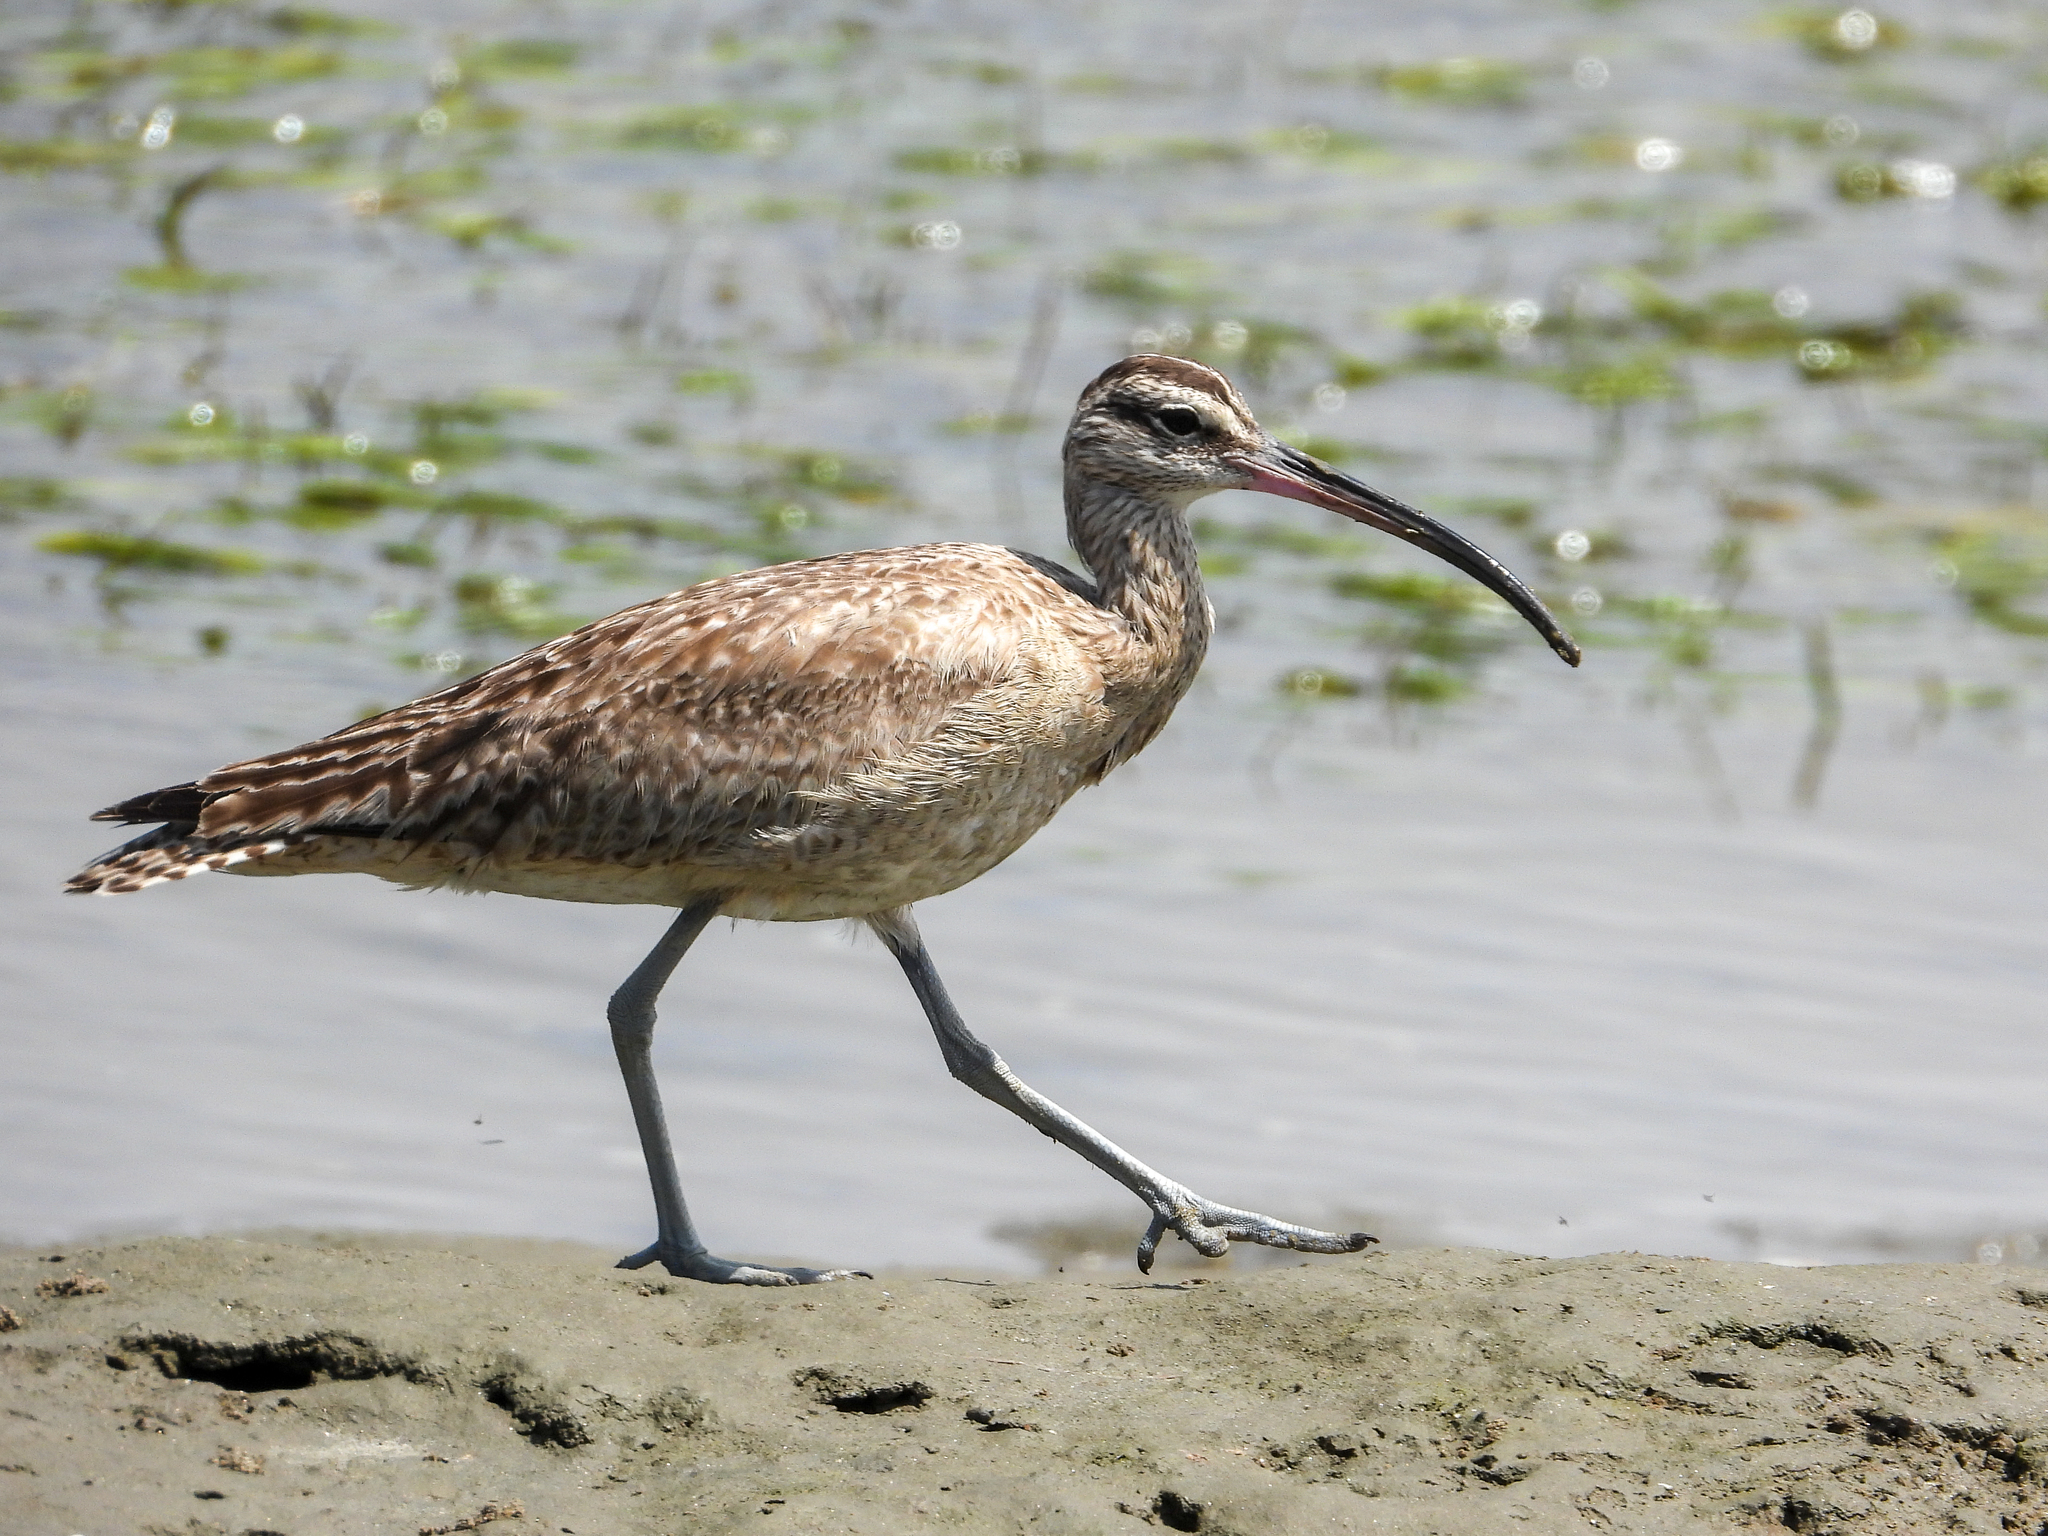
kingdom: Animalia
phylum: Chordata
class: Aves
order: Charadriiformes
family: Scolopacidae
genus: Numenius
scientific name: Numenius phaeopus
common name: Whimbrel
